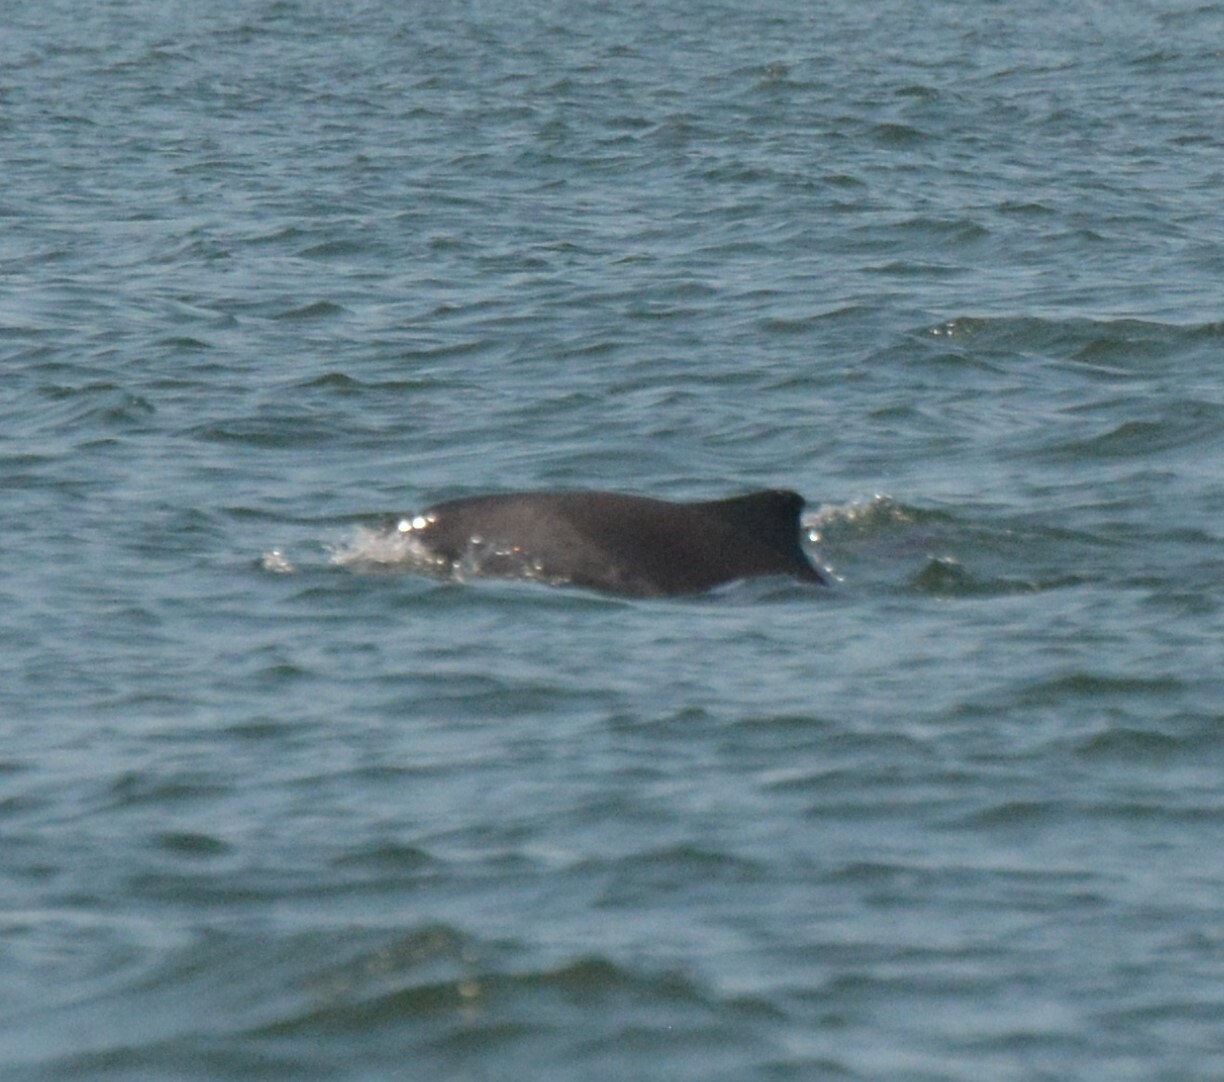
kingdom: Animalia
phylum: Chordata
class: Mammalia
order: Cetacea
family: Phocoenidae
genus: Phocoena
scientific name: Phocoena phocoena
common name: Harbor porpoise
